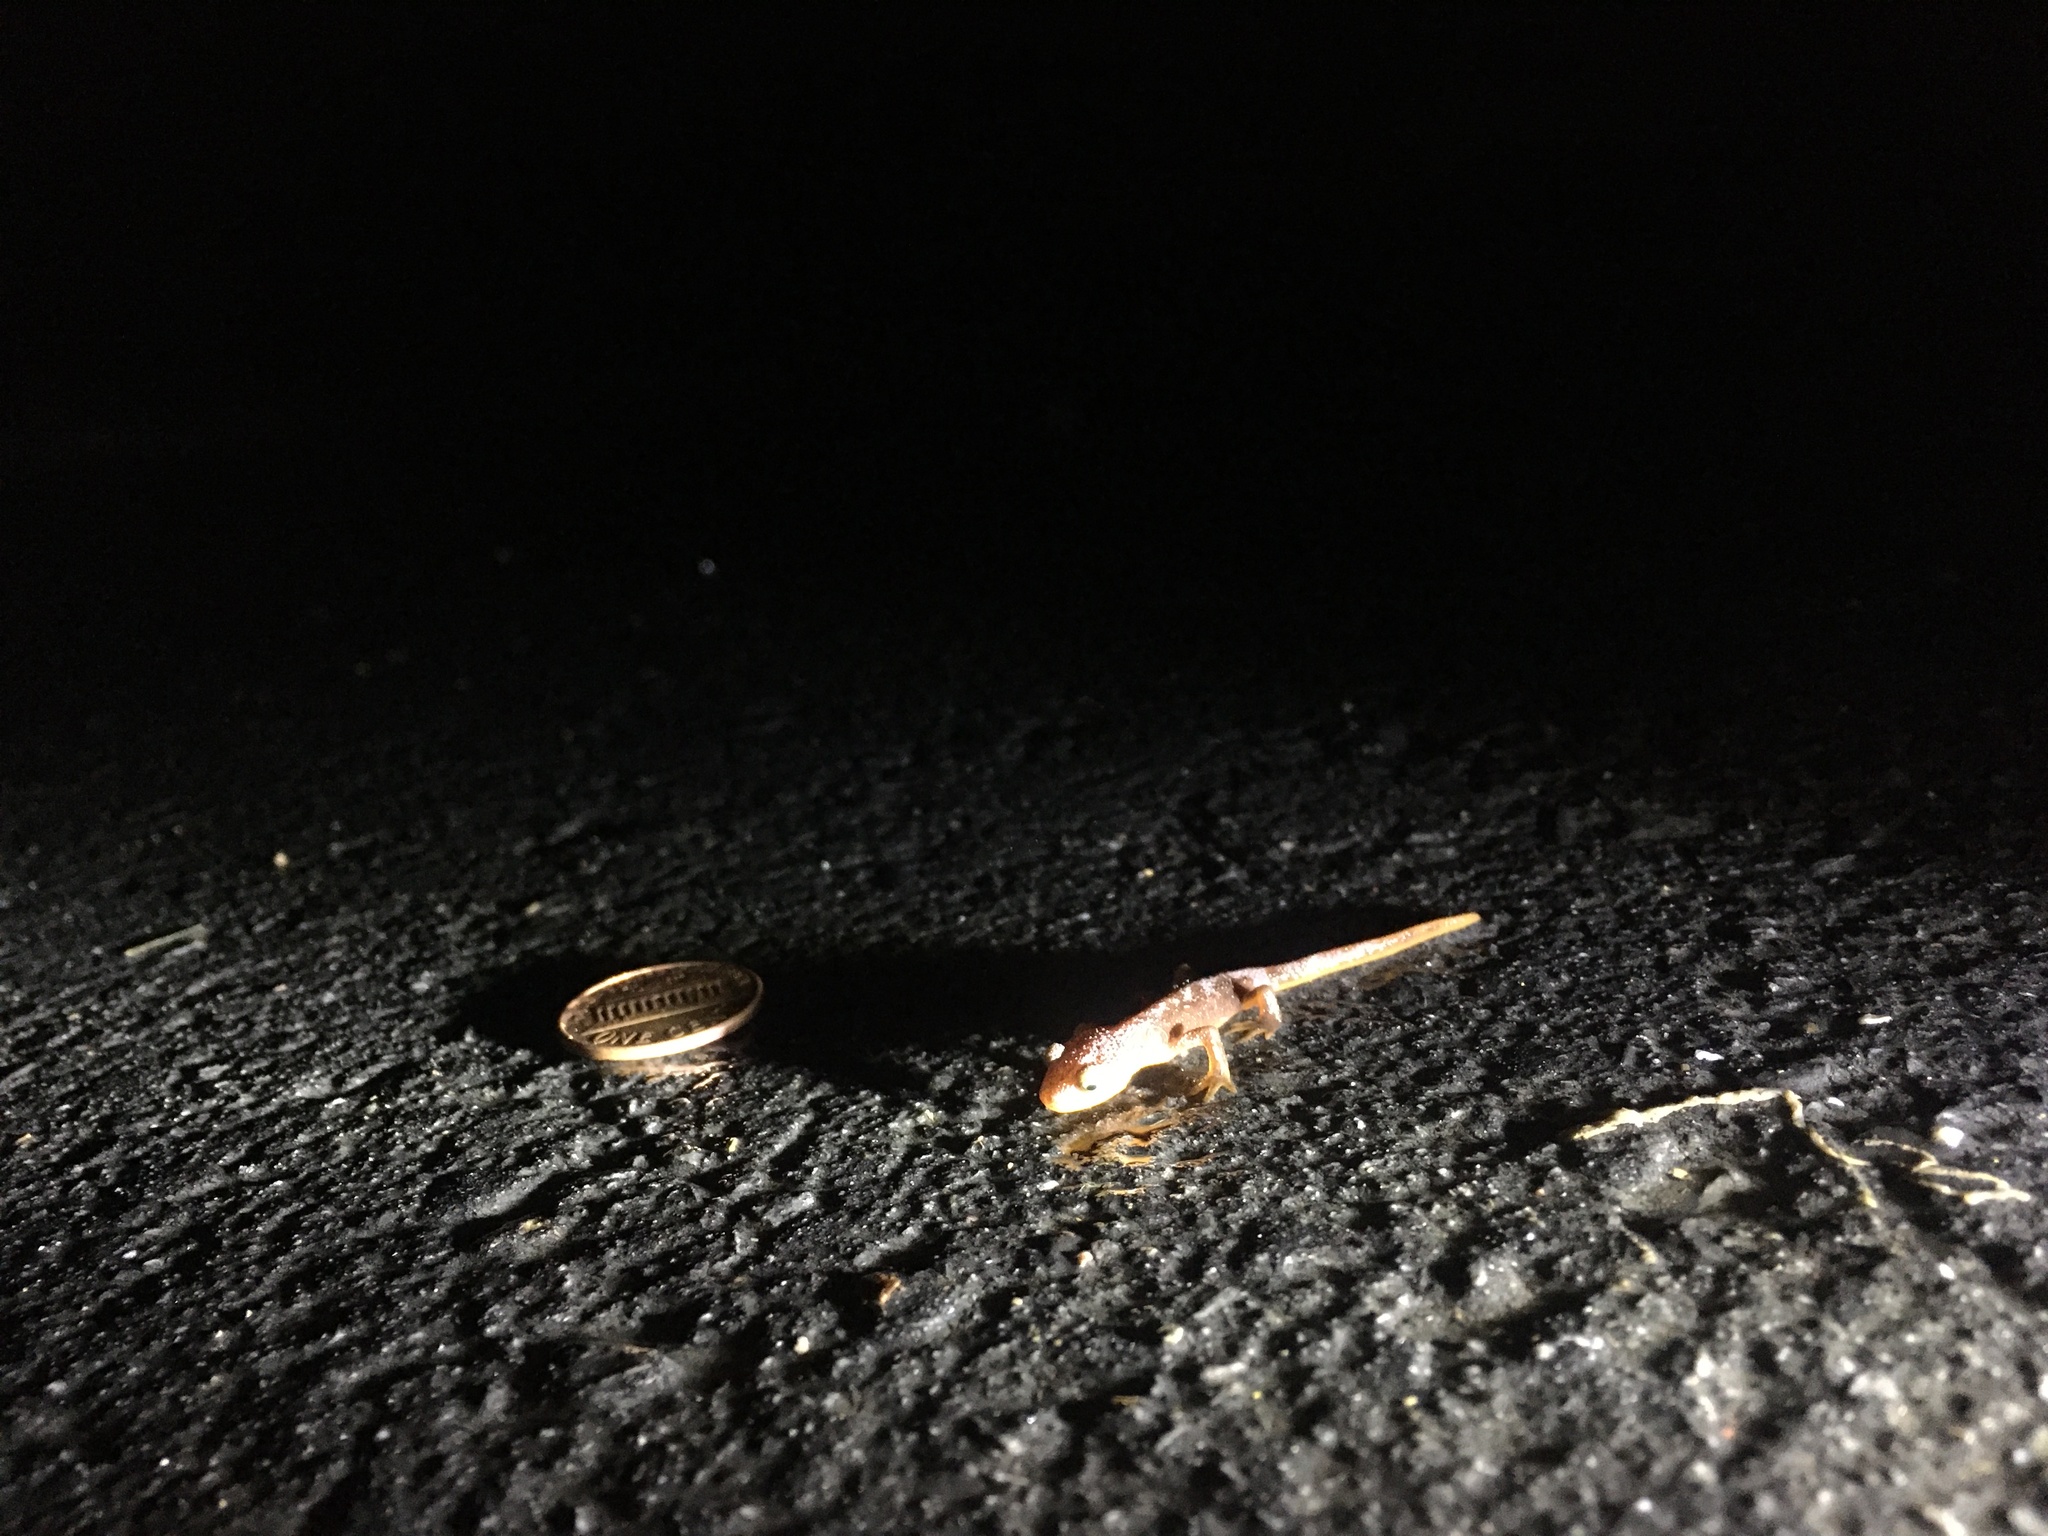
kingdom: Animalia
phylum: Chordata
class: Amphibia
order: Caudata
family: Salamandridae
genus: Taricha
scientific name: Taricha torosa
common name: California newt
